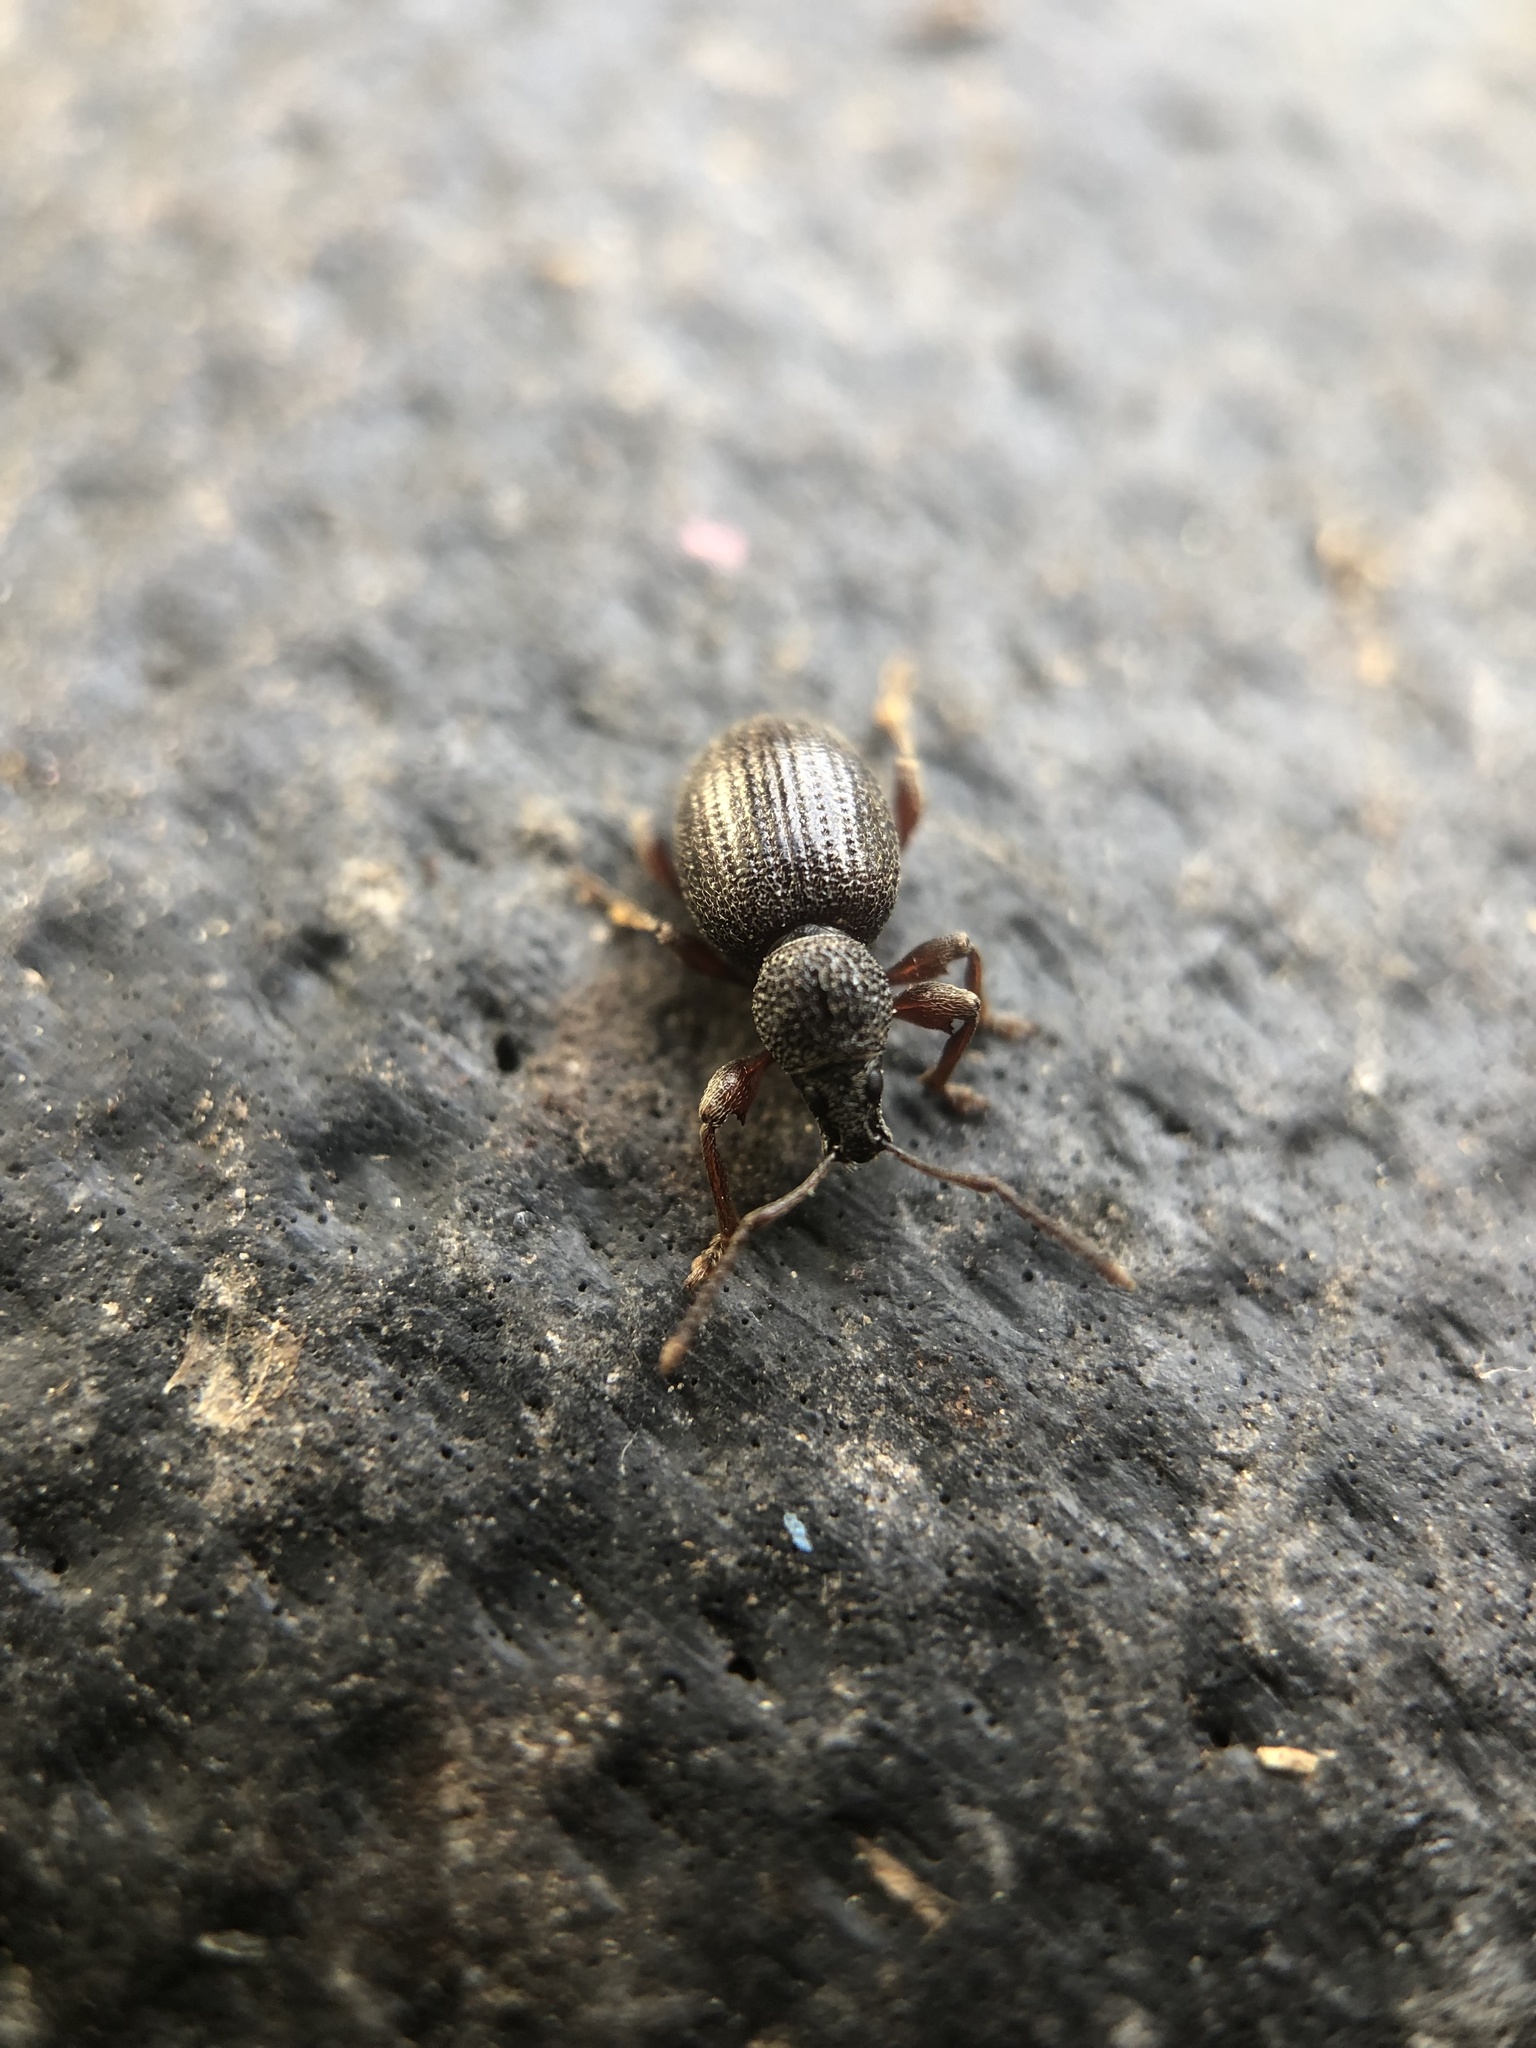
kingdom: Animalia
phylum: Arthropoda
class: Insecta
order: Coleoptera
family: Curculionidae
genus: Otiorhynchus
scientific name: Otiorhynchus ovatus
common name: Strawberry root weevil
